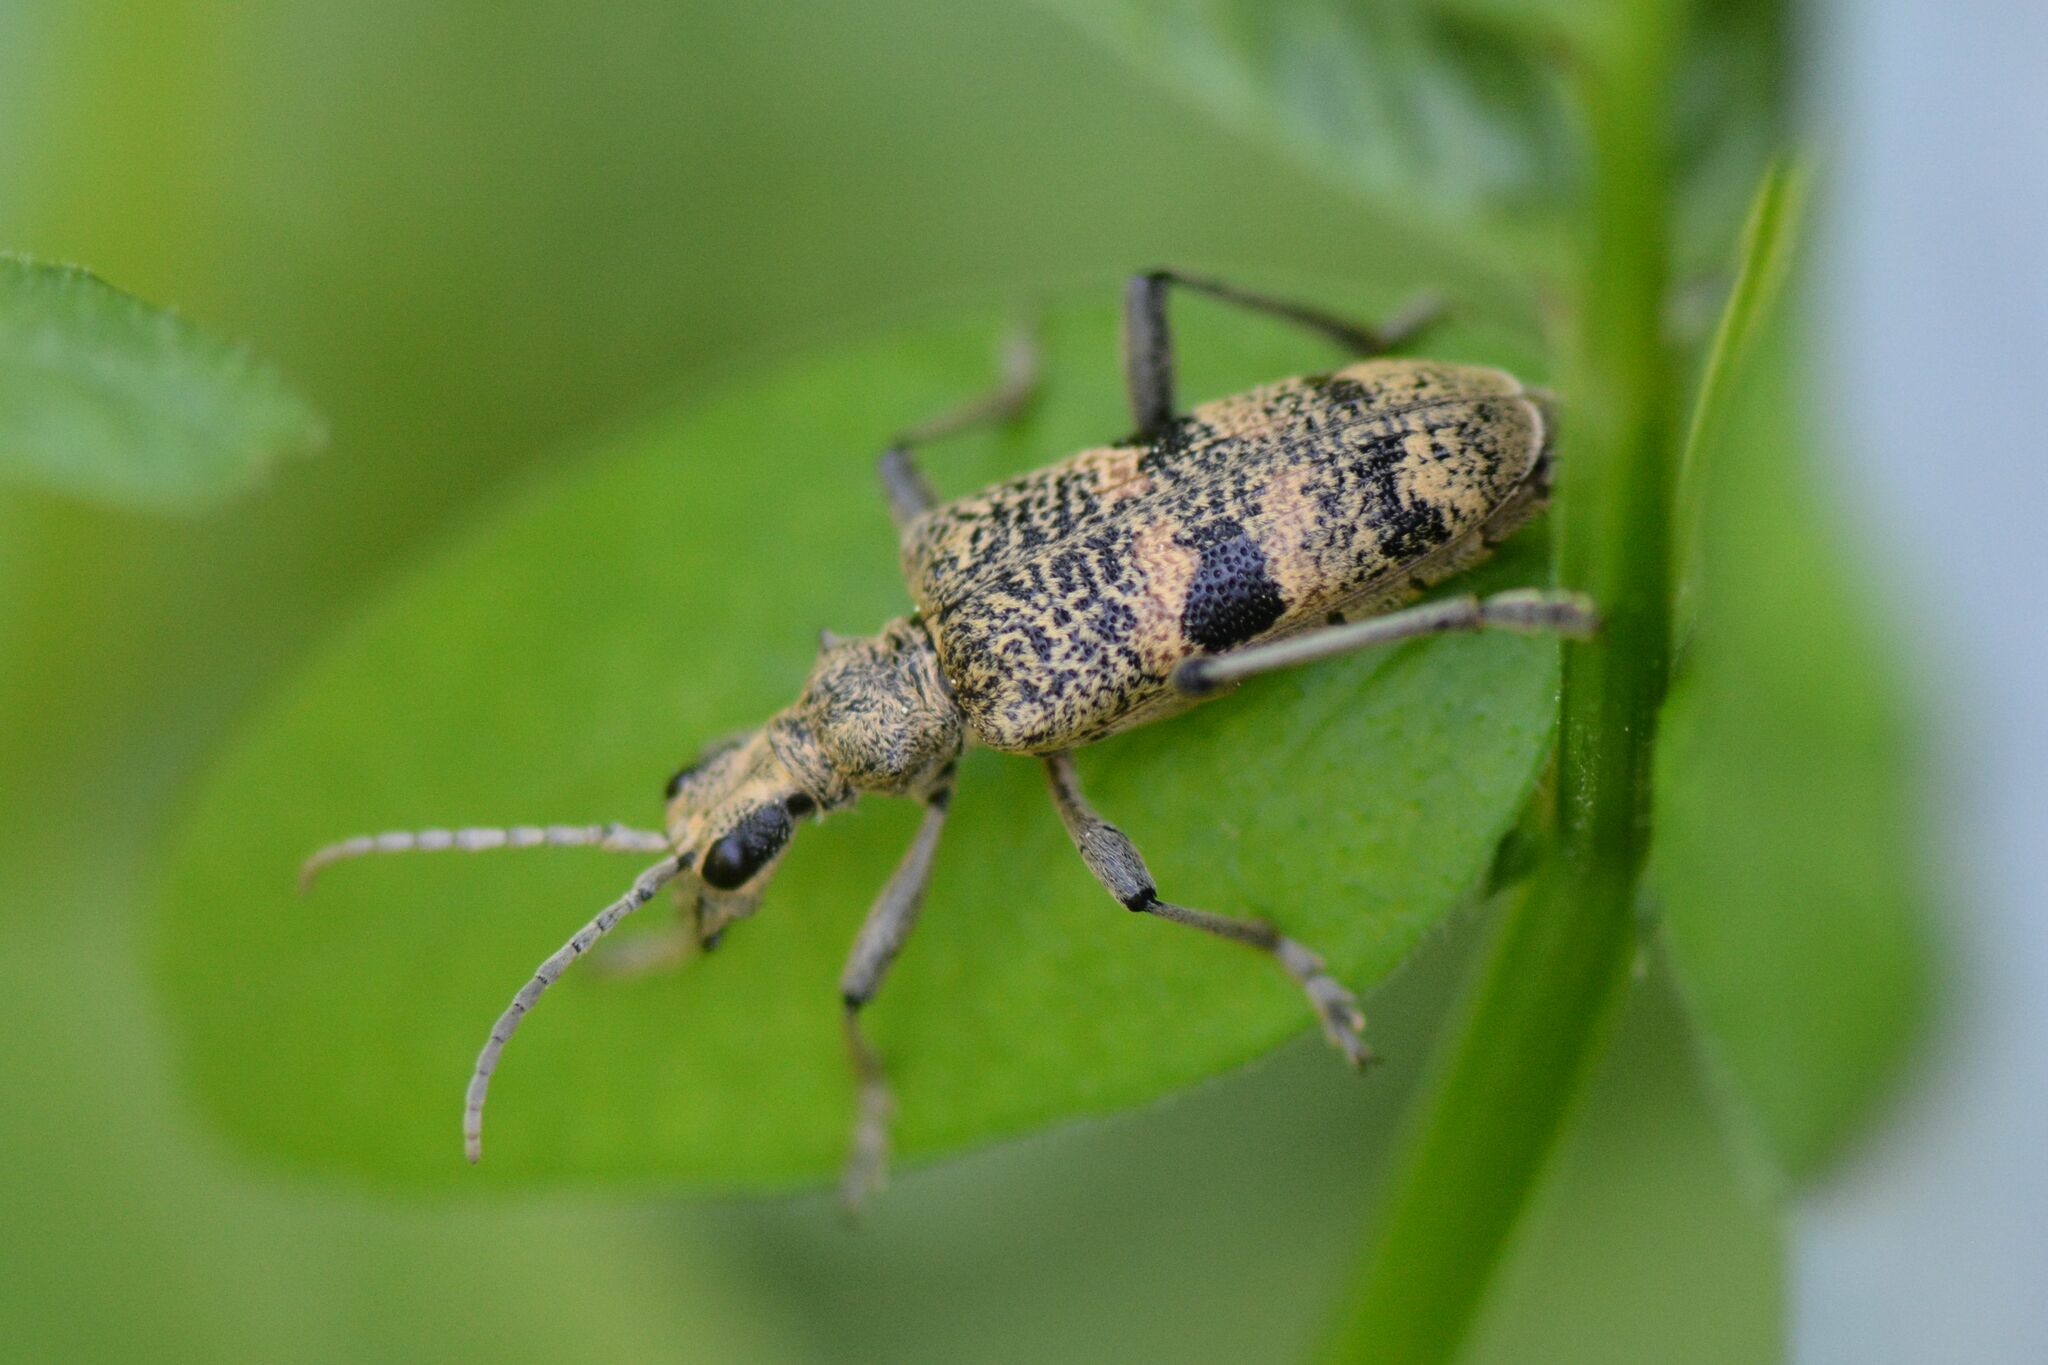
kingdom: Animalia
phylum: Arthropoda
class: Insecta
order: Coleoptera
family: Cerambycidae
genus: Rhagium
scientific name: Rhagium mordax
